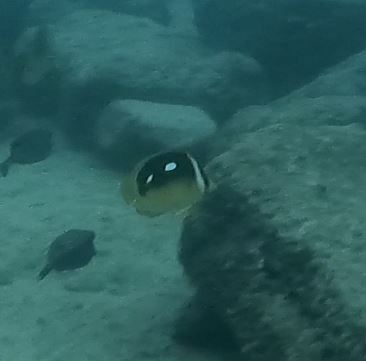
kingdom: Animalia
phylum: Chordata
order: Perciformes
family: Chaetodontidae
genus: Chaetodon
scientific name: Chaetodon quadrimaculatus
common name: Fourspot butterflyfish
